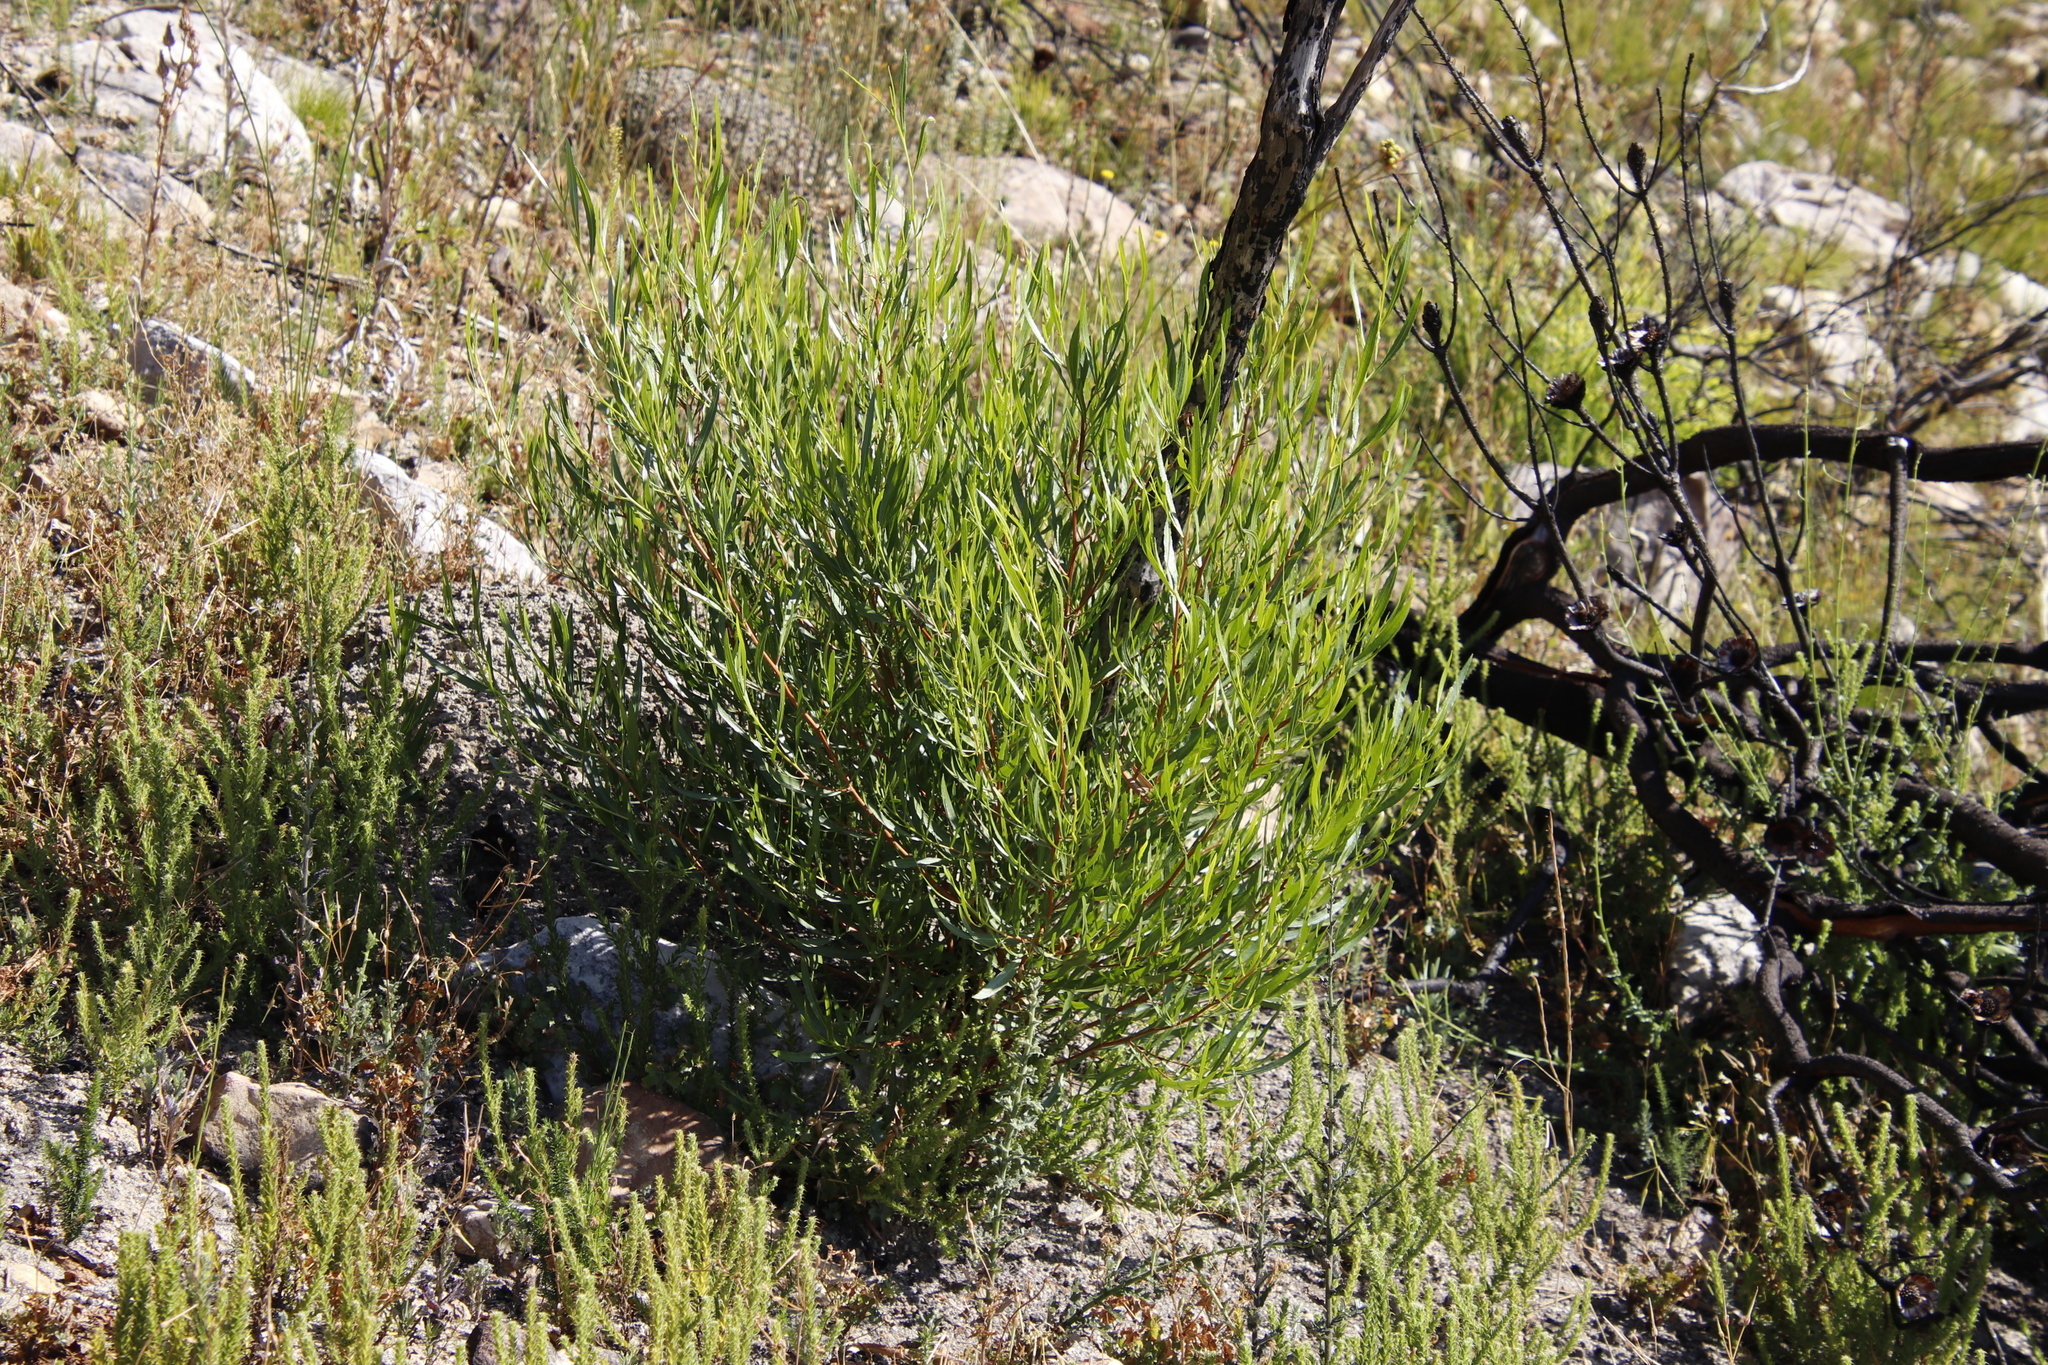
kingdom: Plantae
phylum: Tracheophyta
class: Magnoliopsida
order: Sapindales
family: Sapindaceae
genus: Dodonaea
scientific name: Dodonaea viscosa
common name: Hopbush
